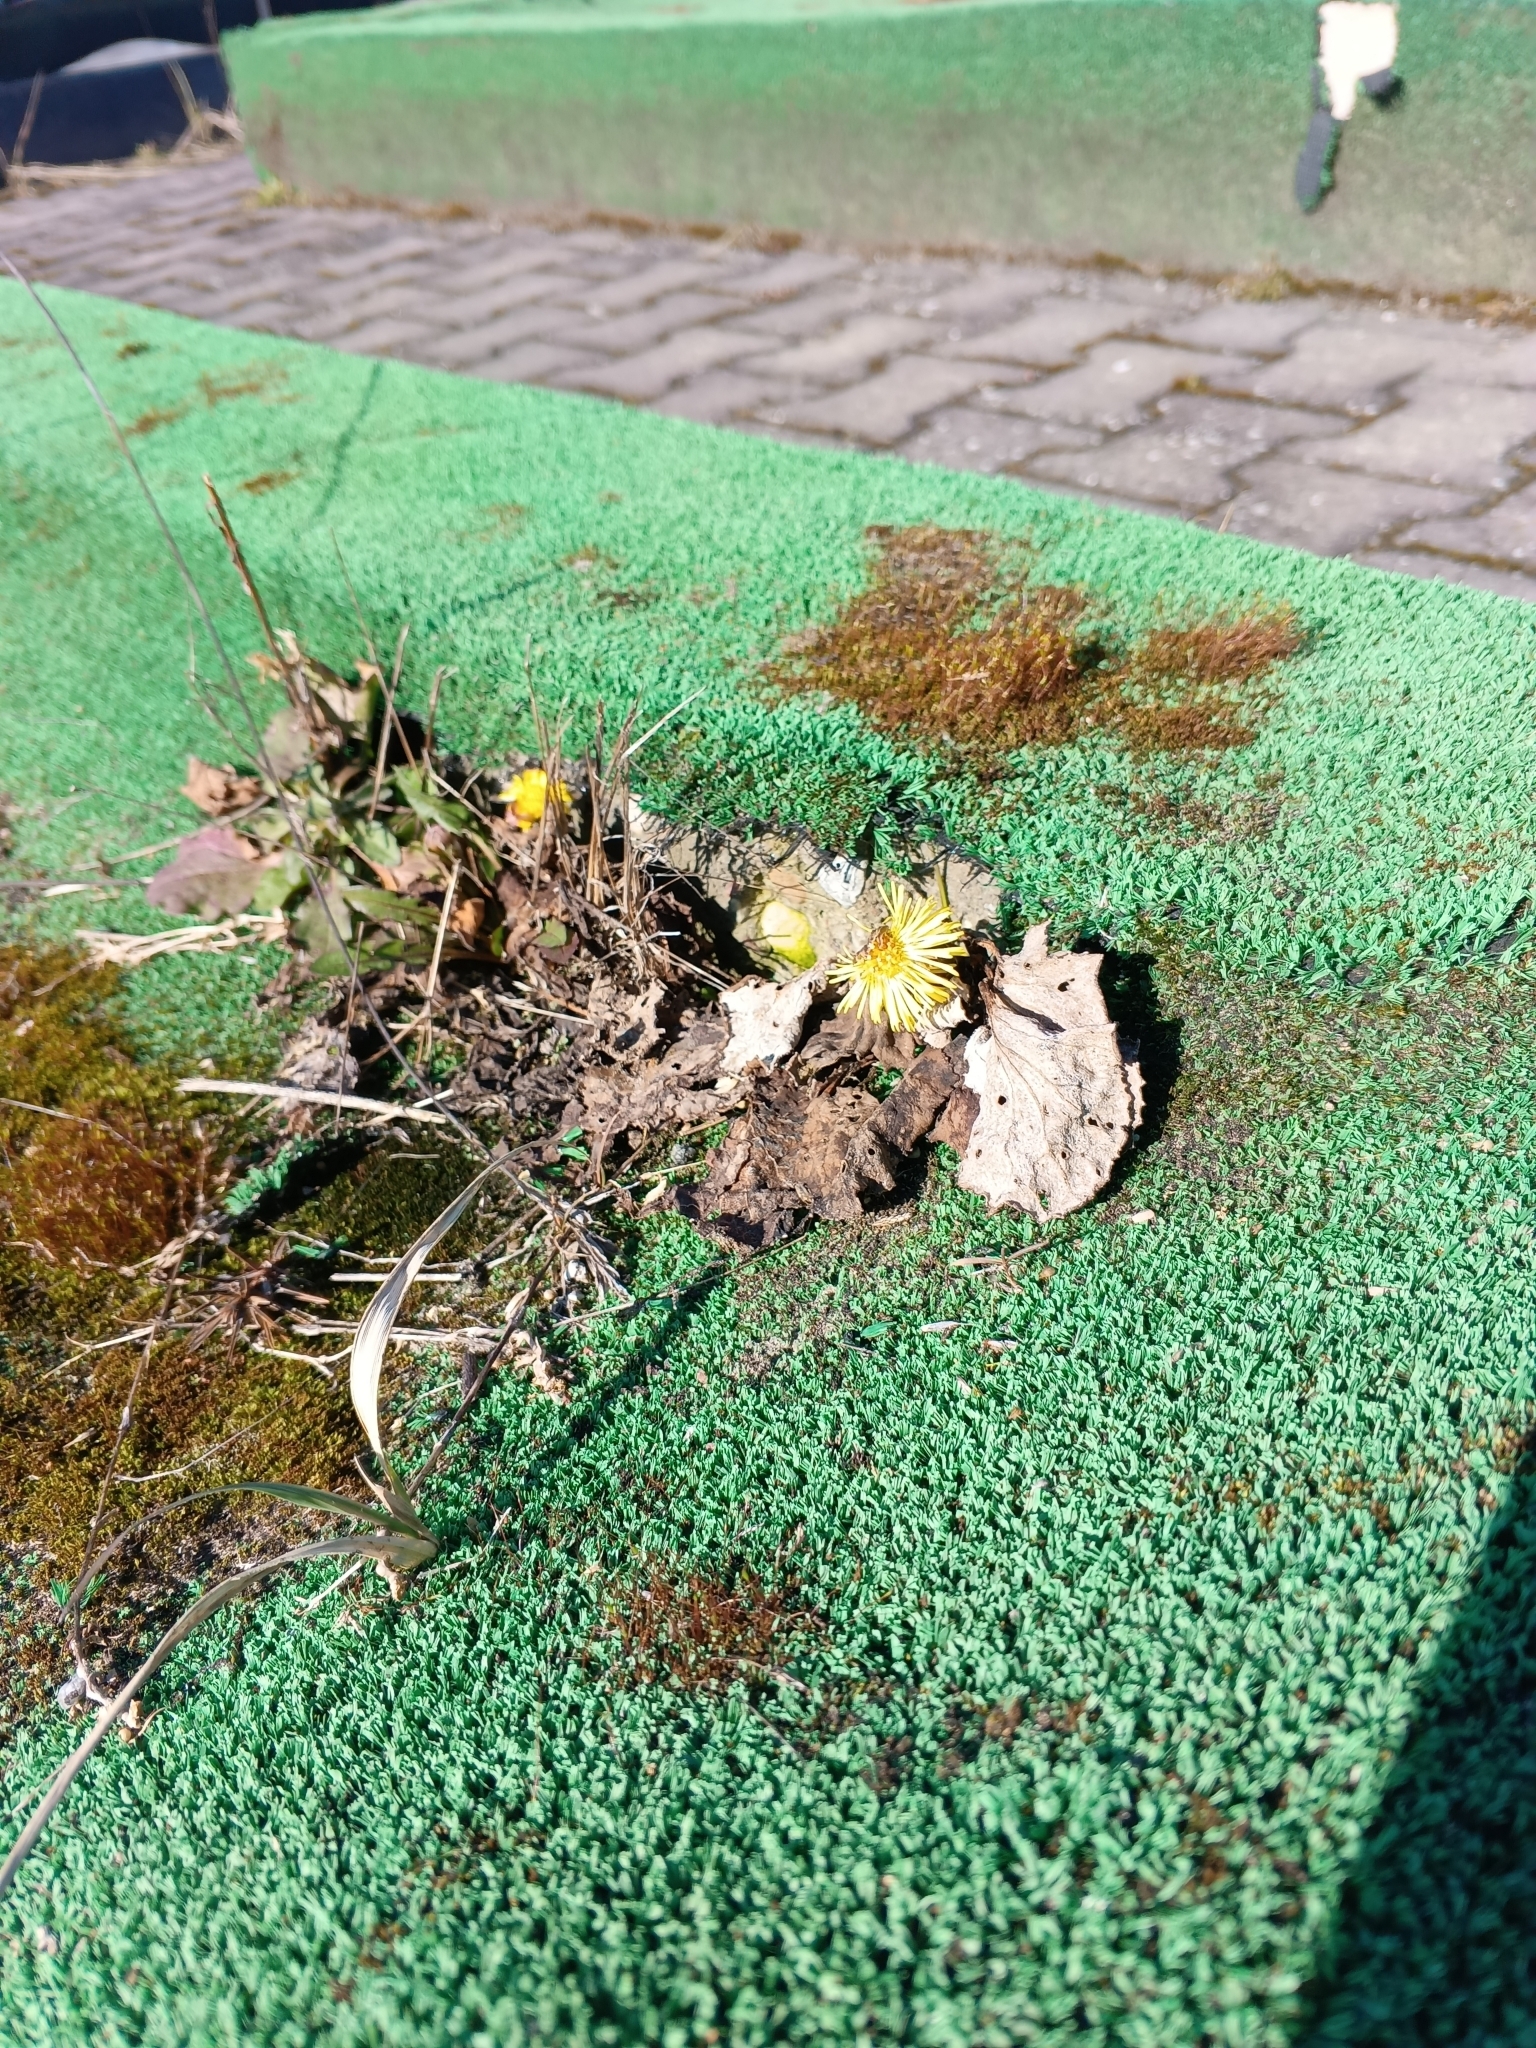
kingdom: Plantae
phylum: Tracheophyta
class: Magnoliopsida
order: Asterales
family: Asteraceae
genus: Tussilago
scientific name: Tussilago farfara
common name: Coltsfoot
